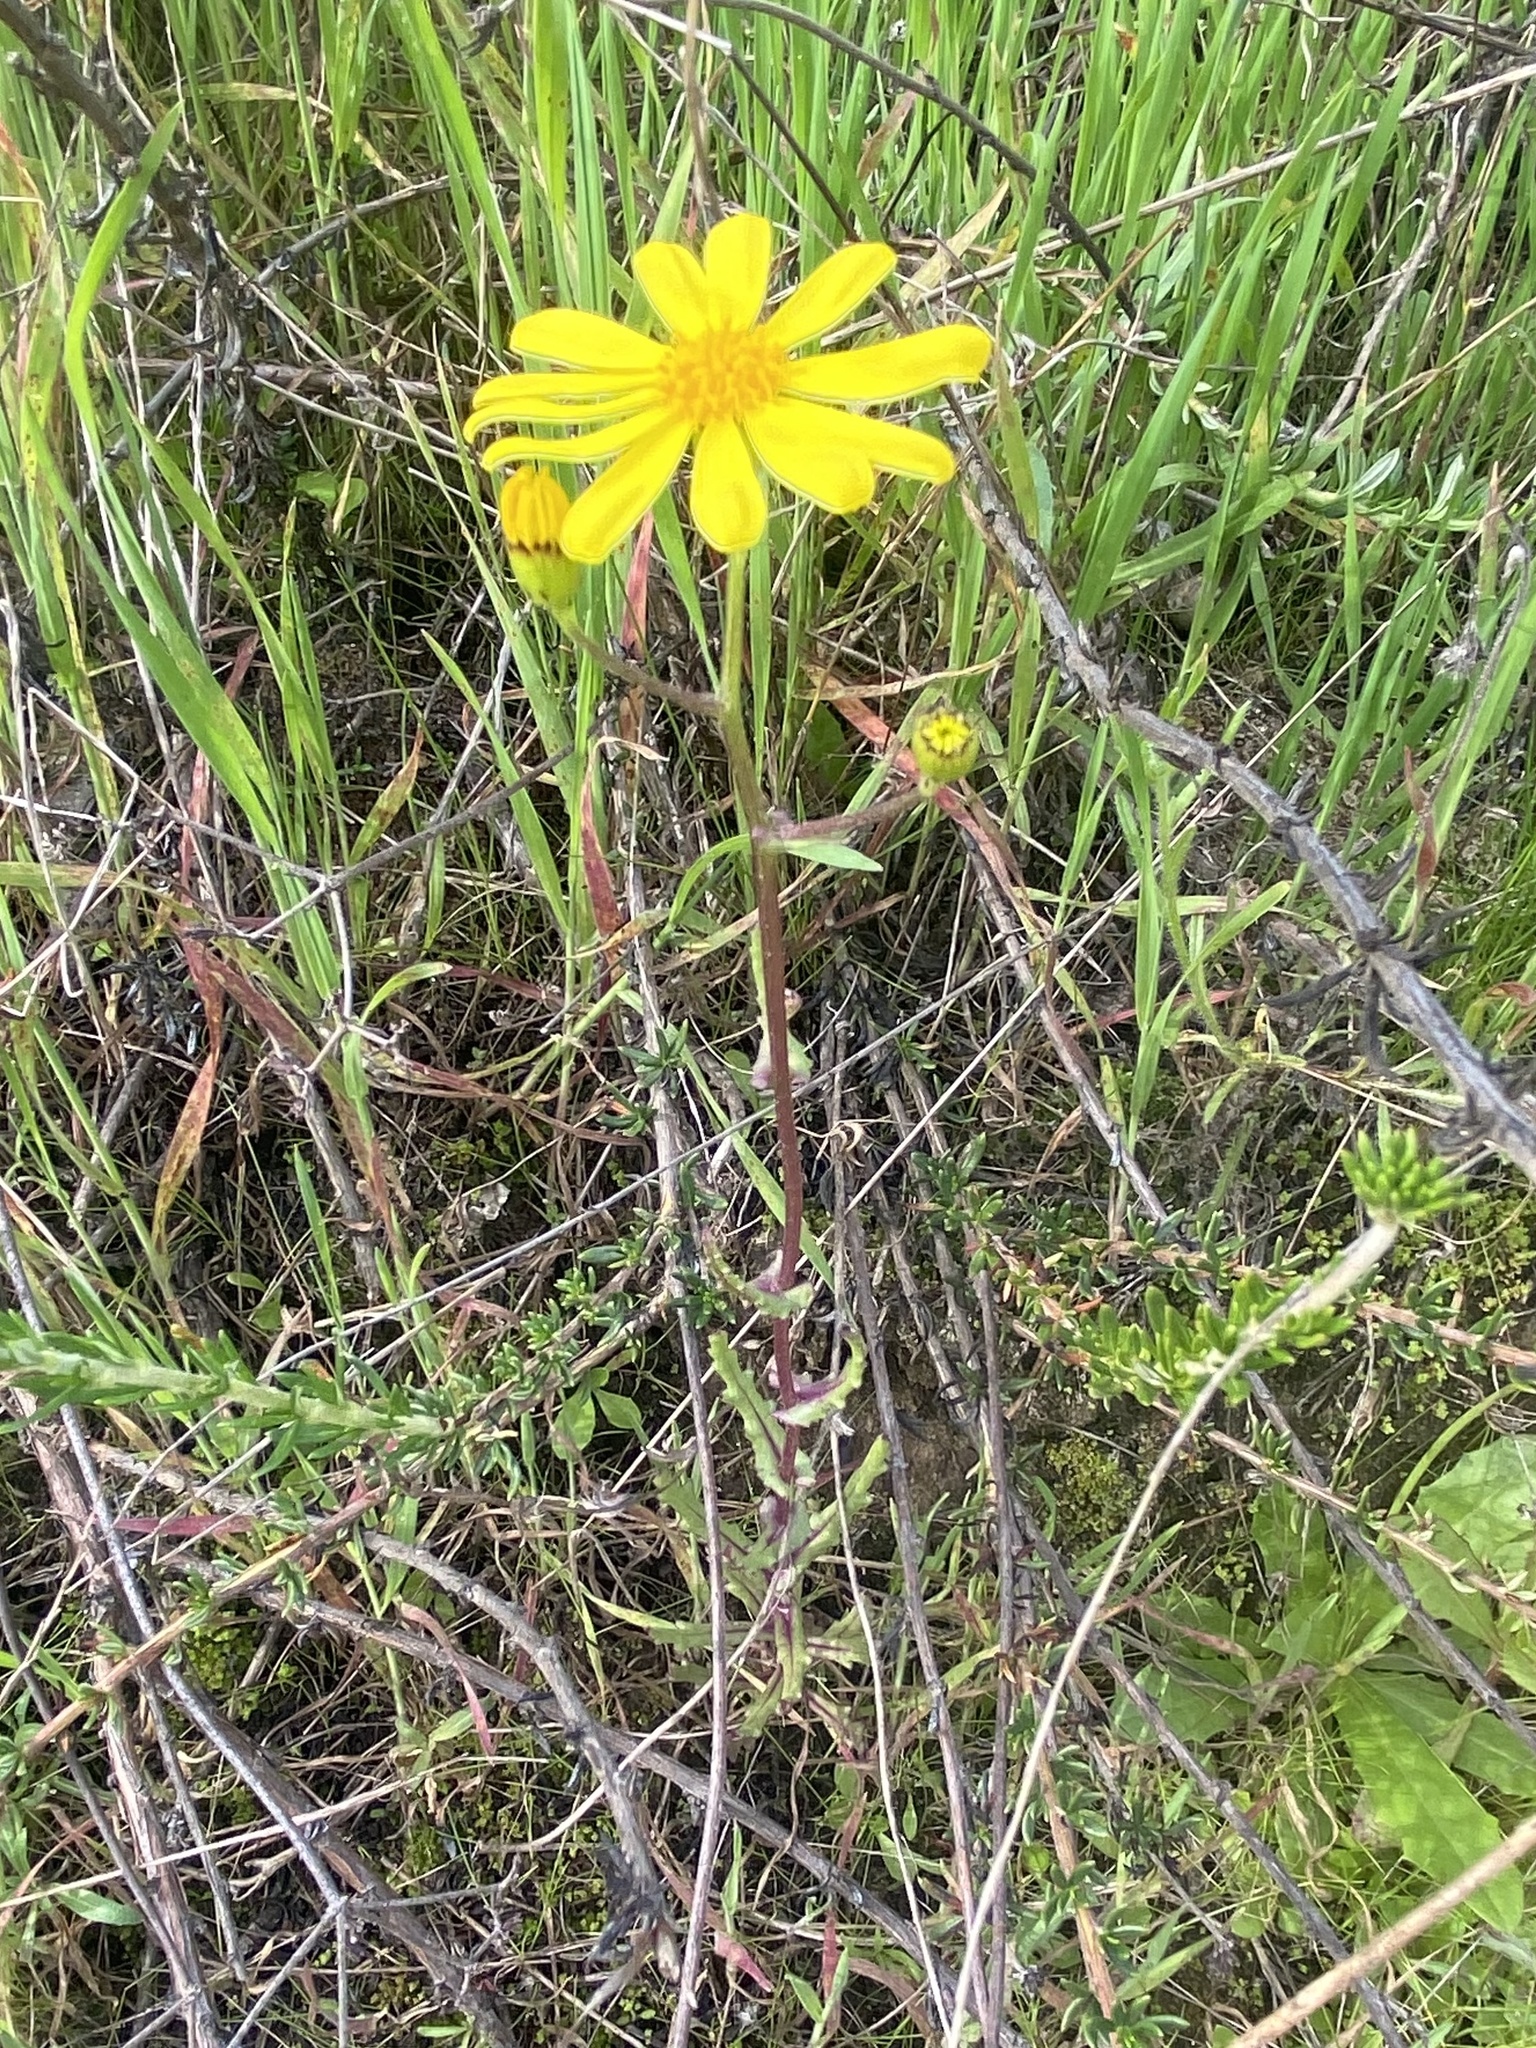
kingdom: Plantae
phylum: Tracheophyta
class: Magnoliopsida
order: Asterales
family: Asteraceae
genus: Senecio
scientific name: Senecio californicus
